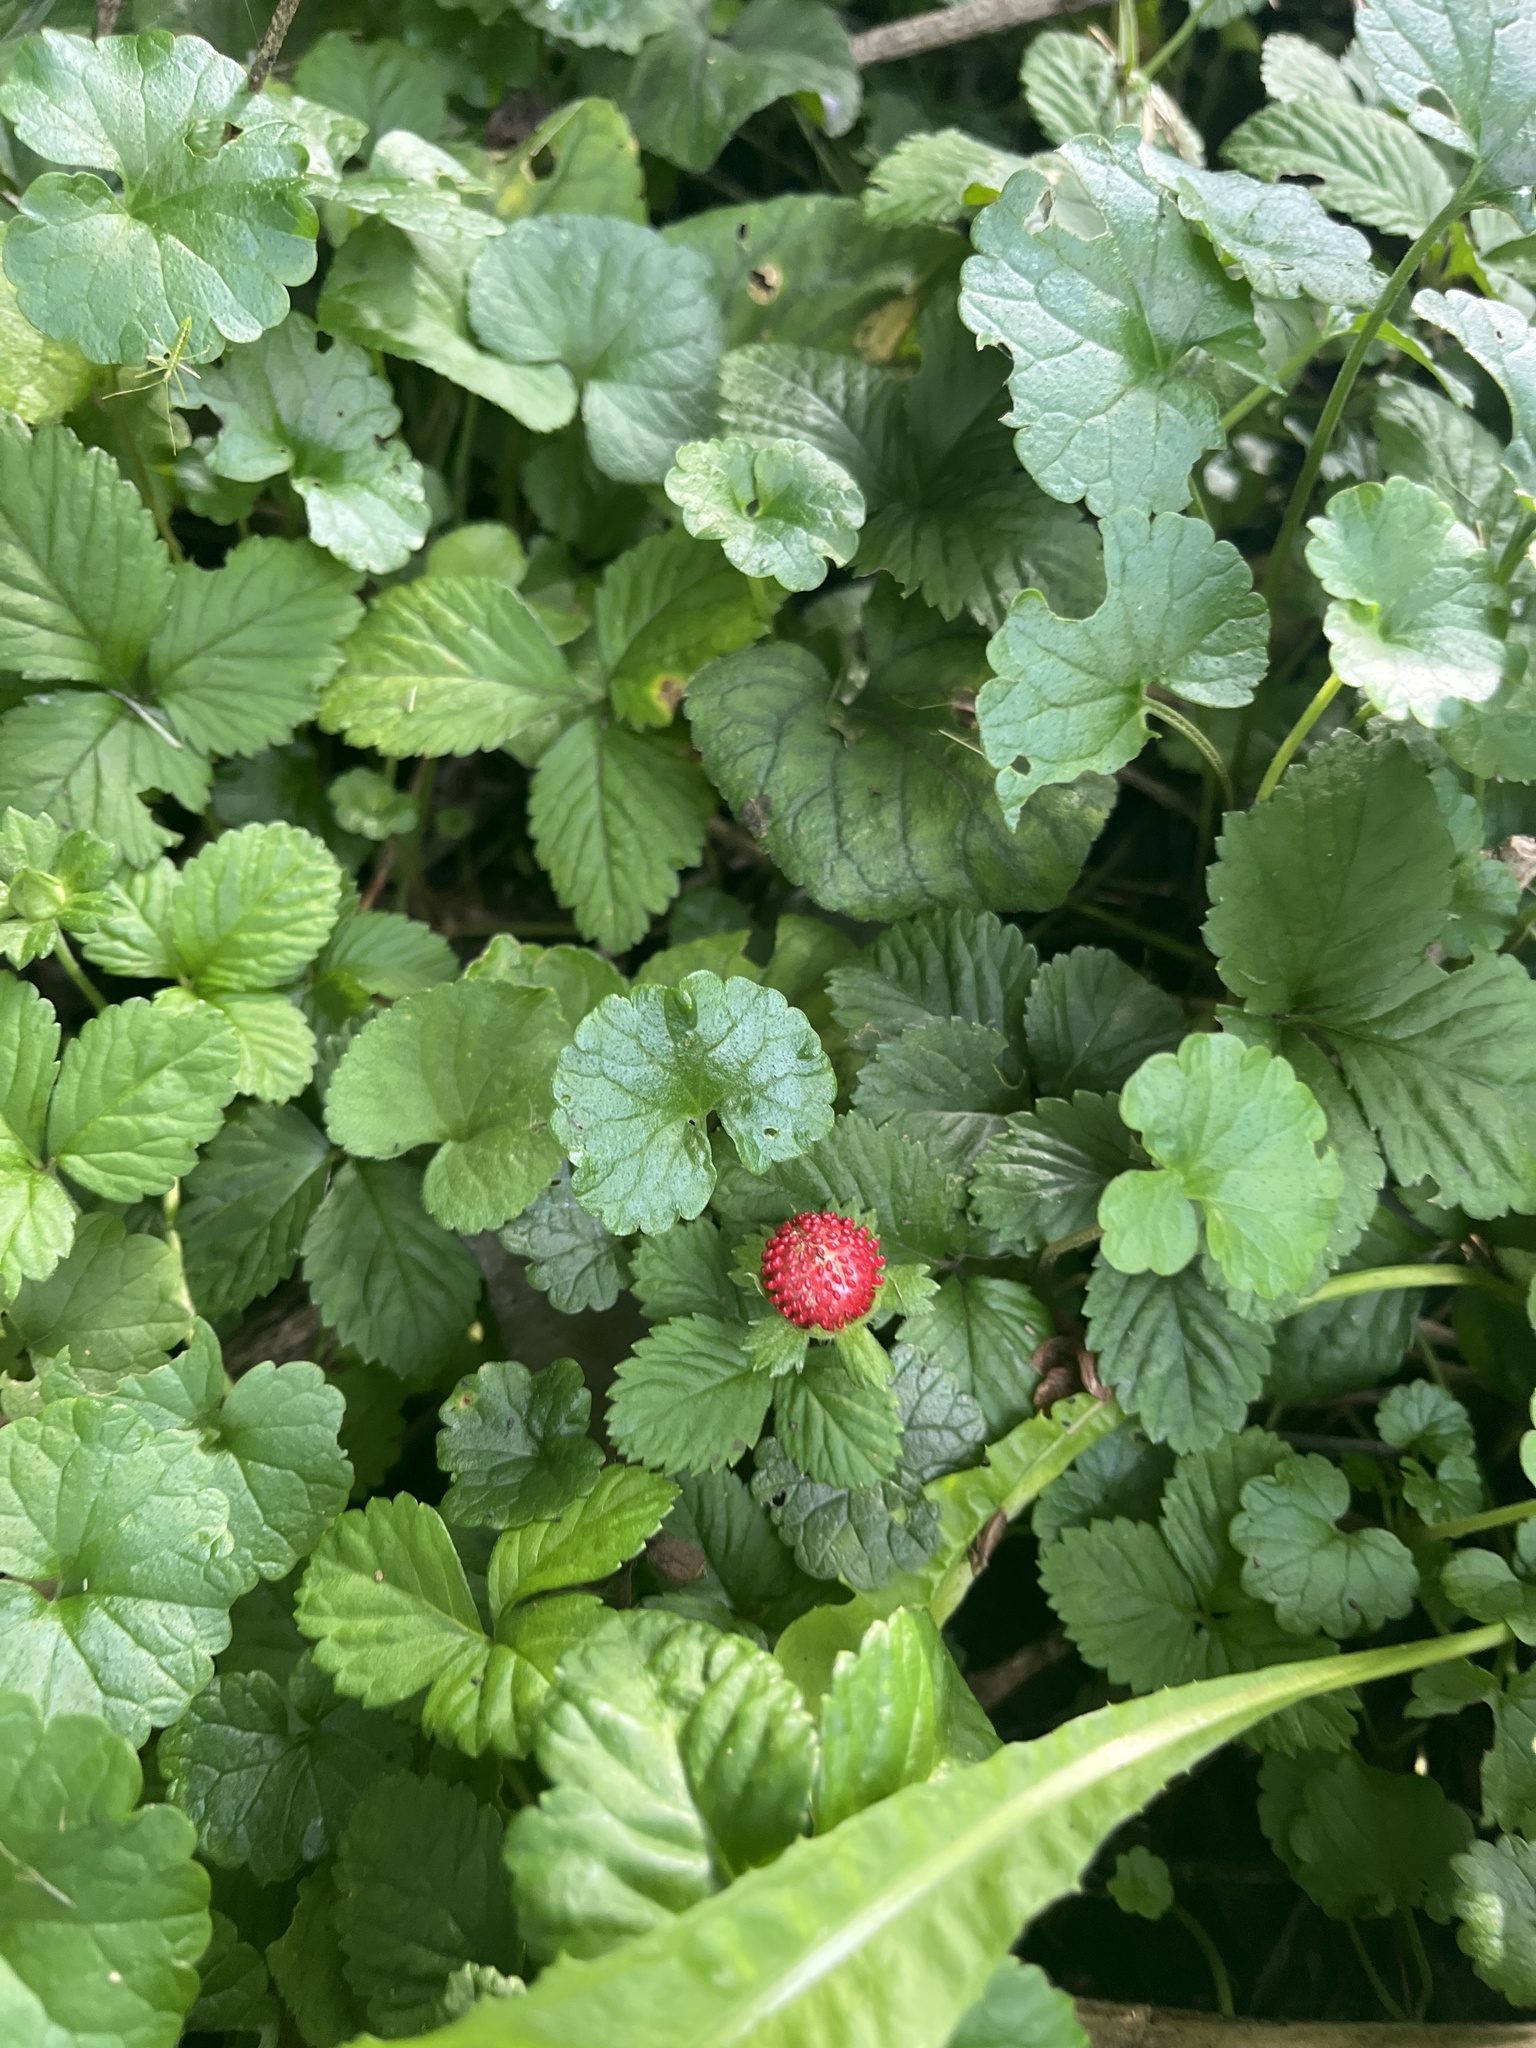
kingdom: Plantae
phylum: Tracheophyta
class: Magnoliopsida
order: Rosales
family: Rosaceae
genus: Potentilla
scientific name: Potentilla indica
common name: Yellow-flowered strawberry
